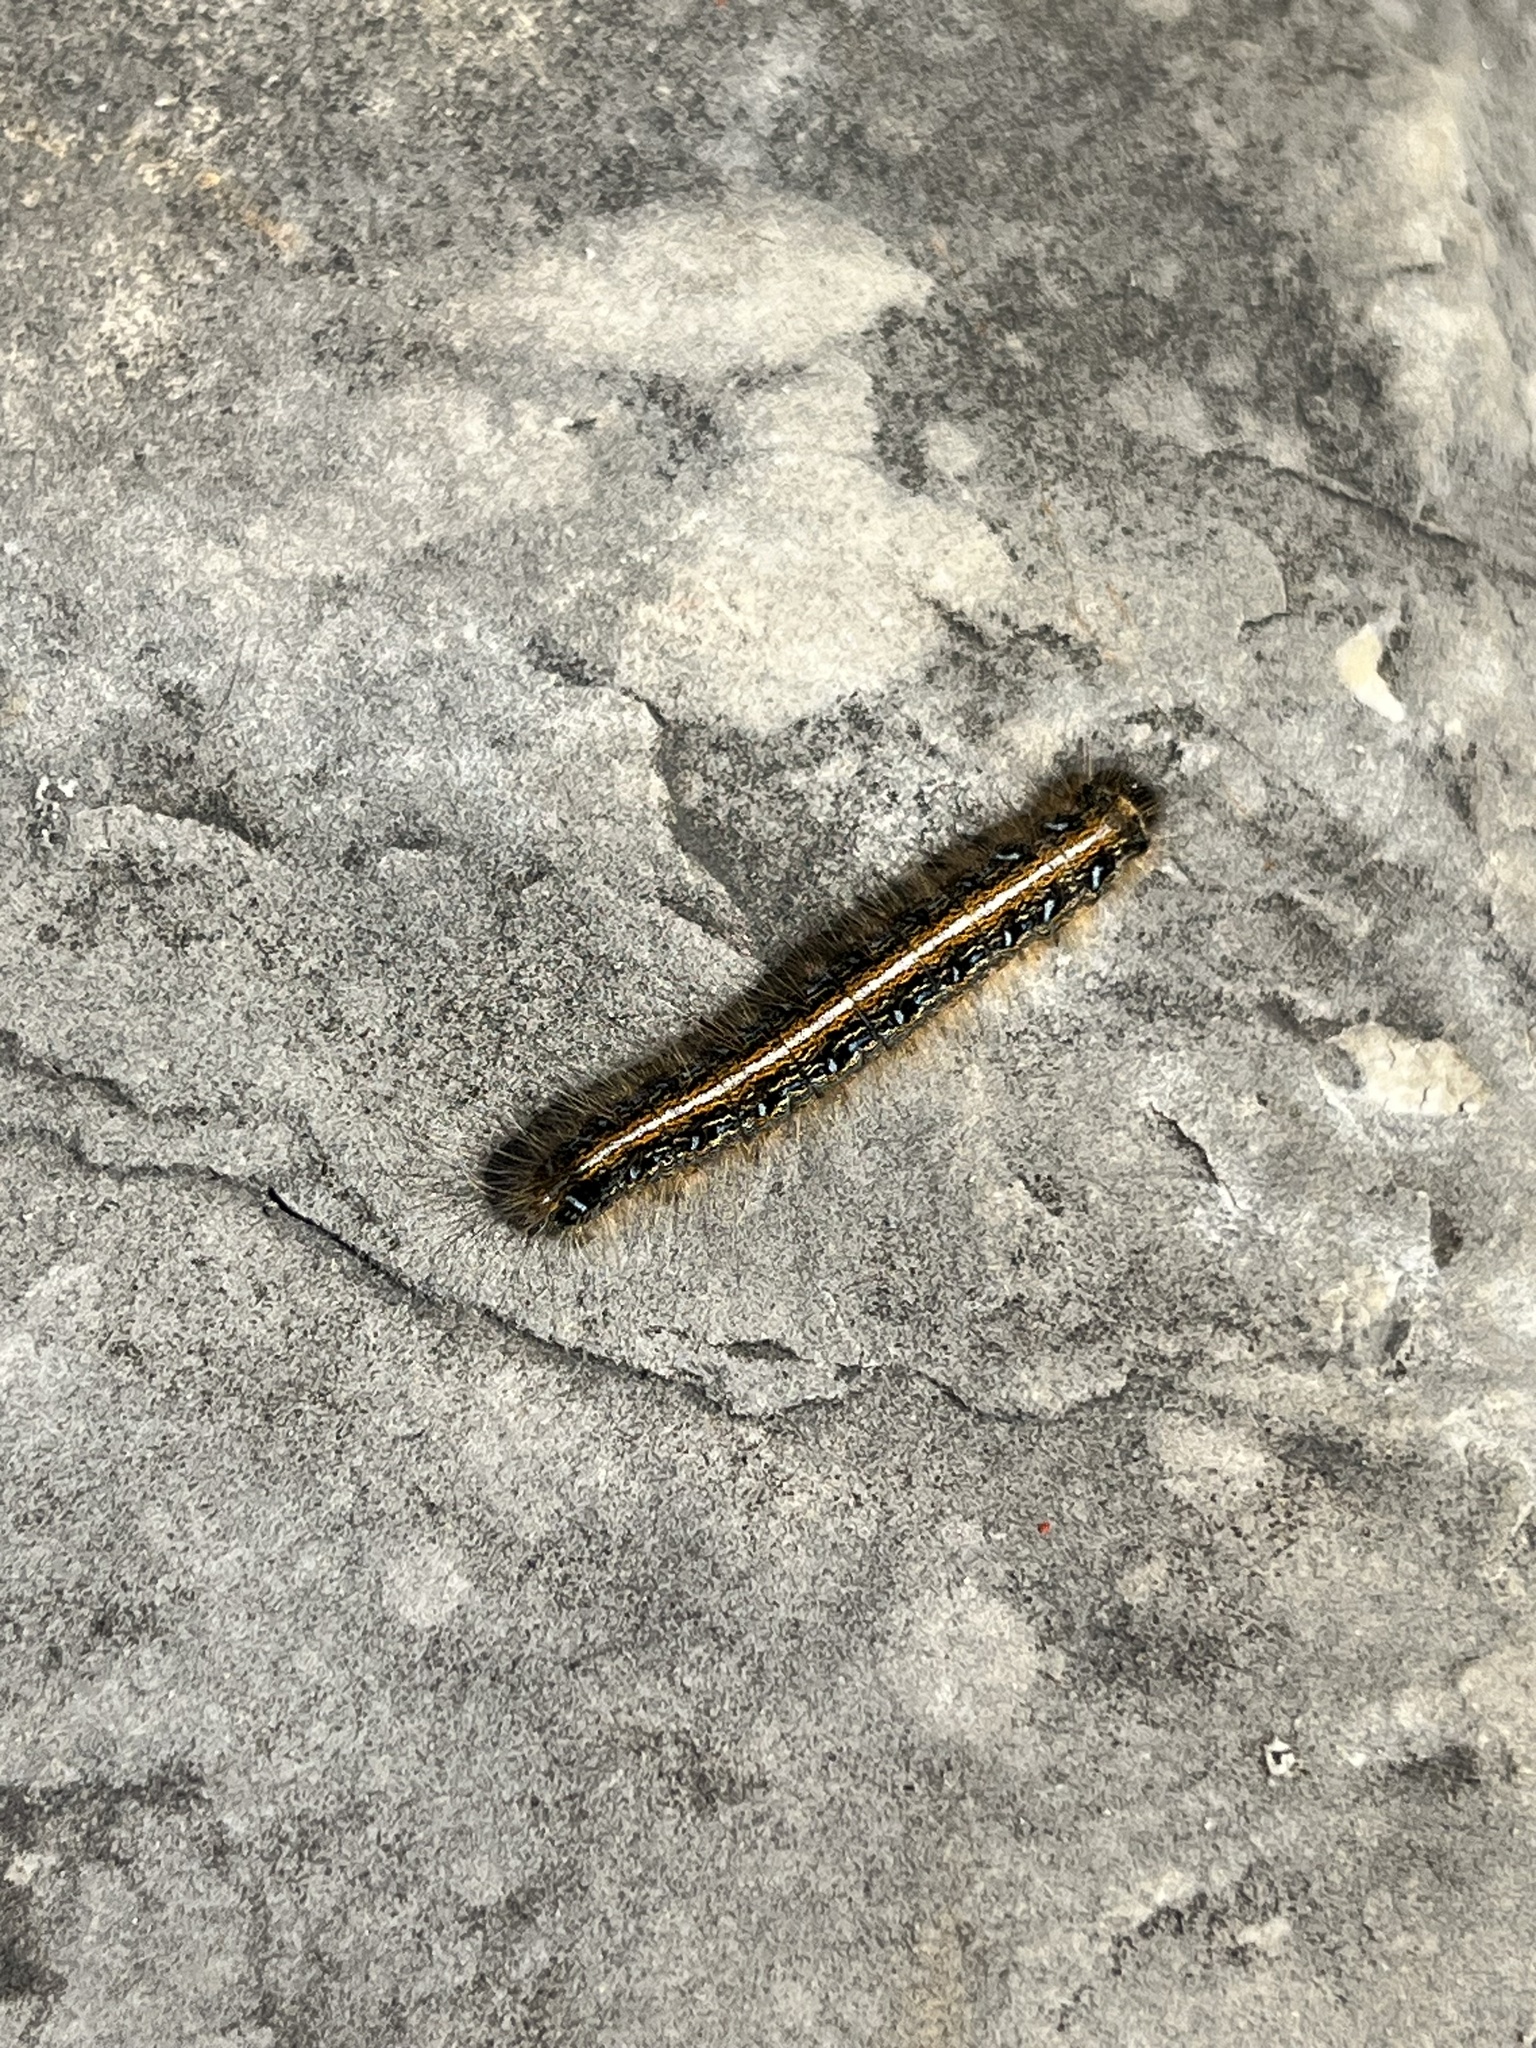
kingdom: Animalia
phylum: Arthropoda
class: Insecta
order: Lepidoptera
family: Lasiocampidae
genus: Malacosoma
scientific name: Malacosoma americana
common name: Eastern tent caterpillar moth
